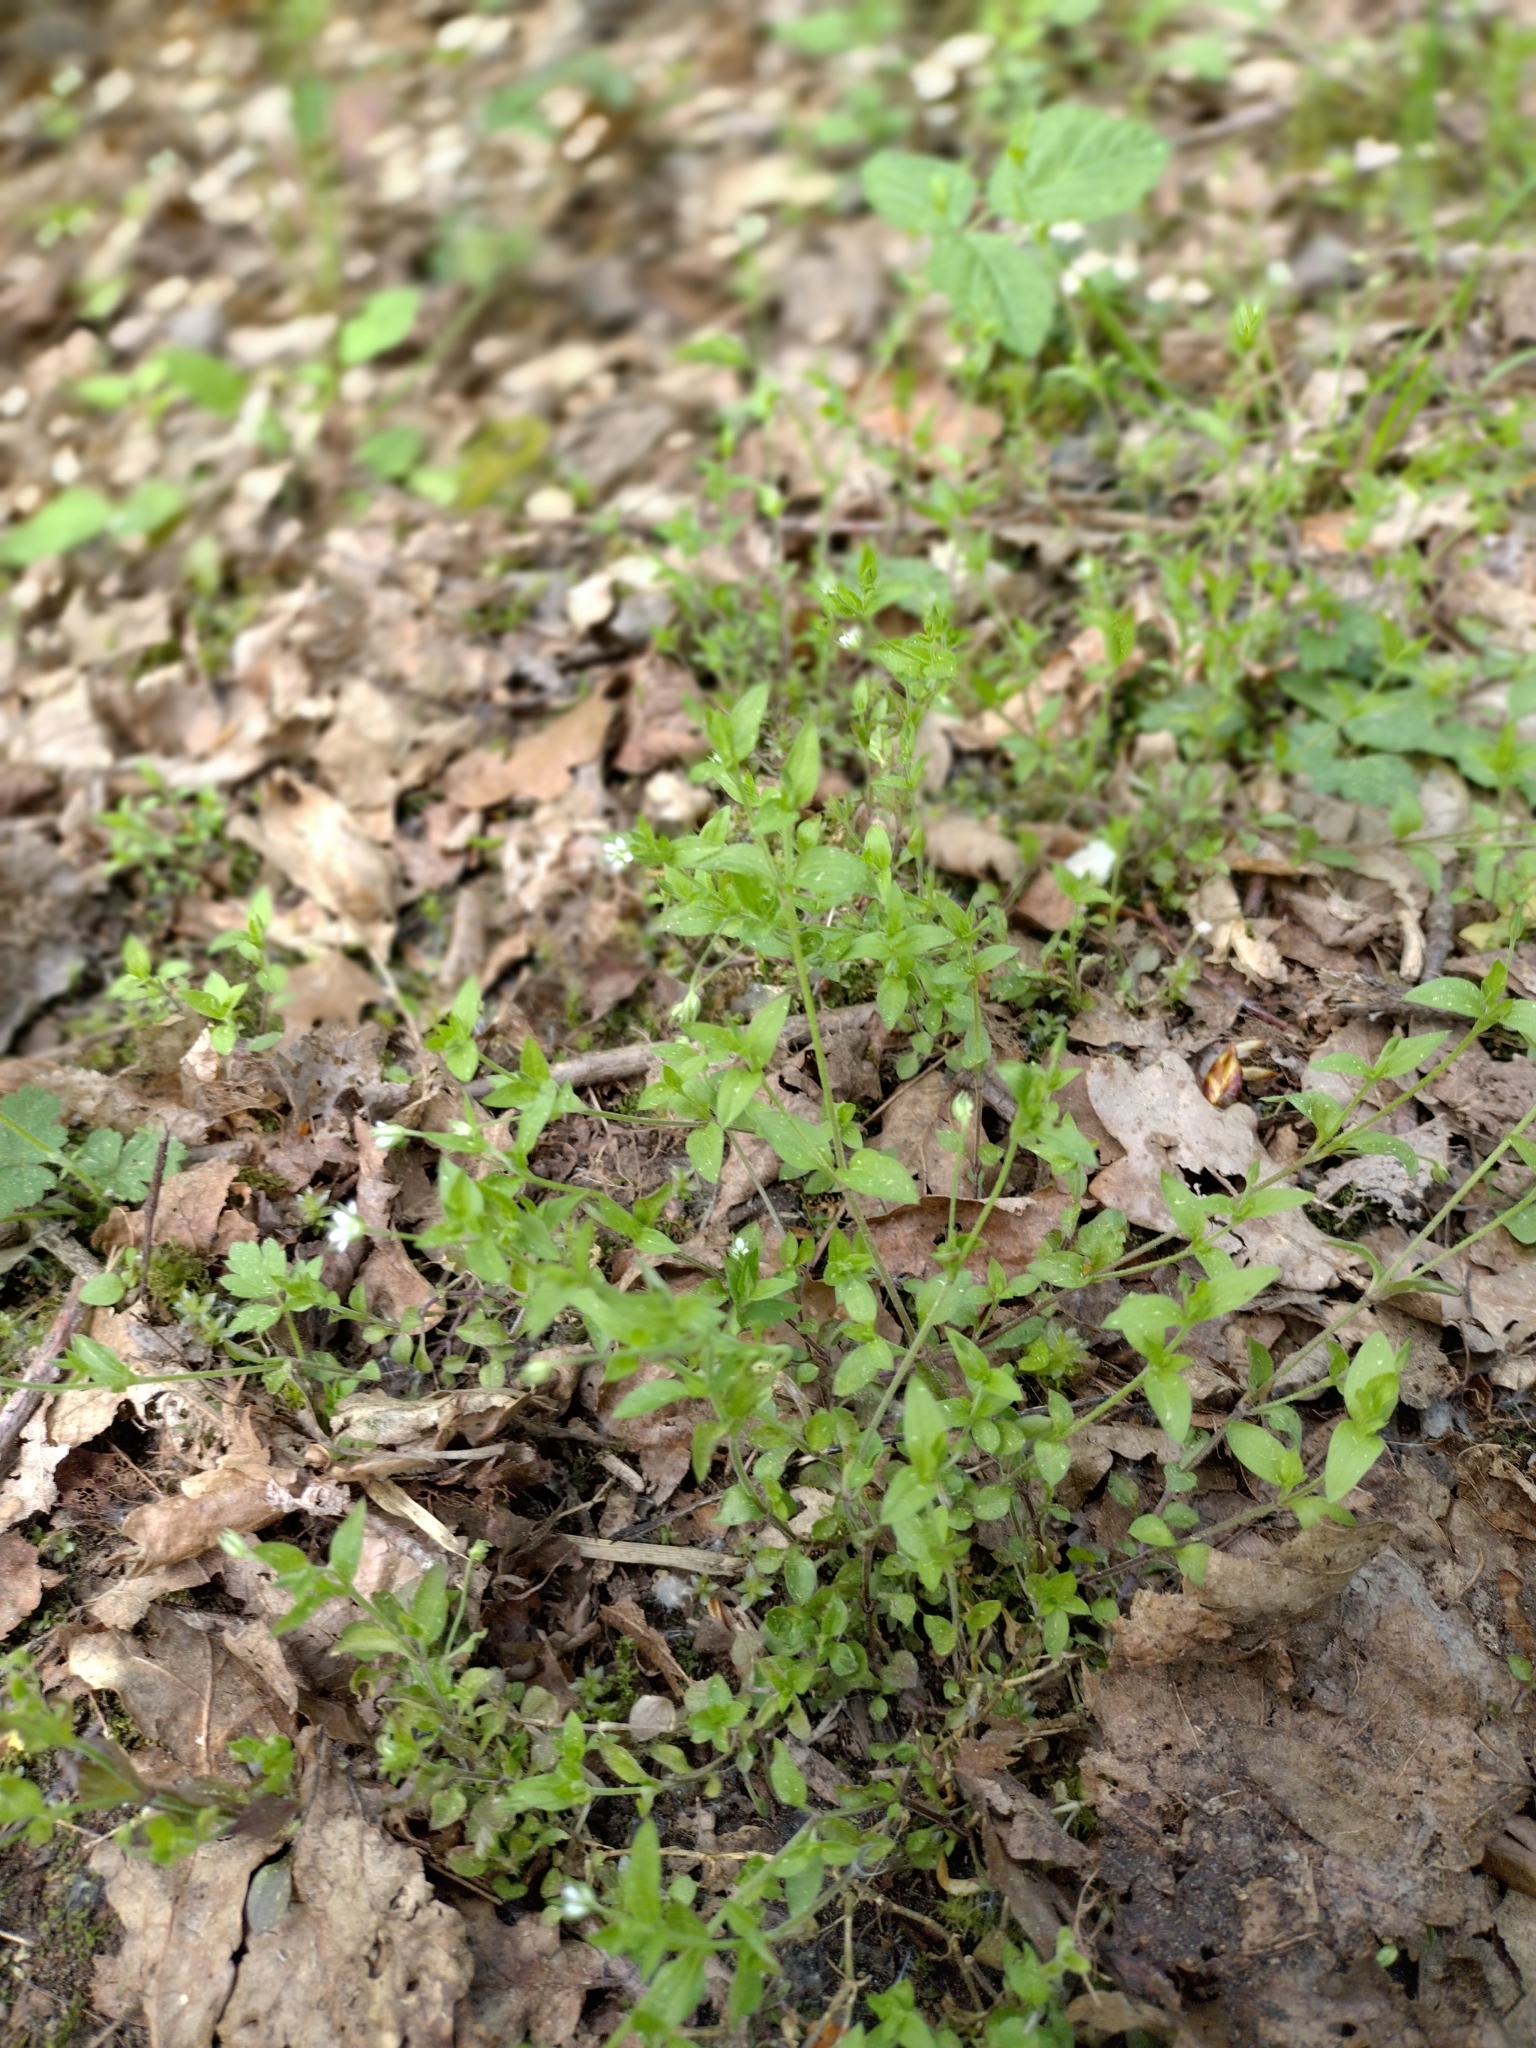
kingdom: Plantae
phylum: Tracheophyta
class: Magnoliopsida
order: Caryophyllales
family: Caryophyllaceae
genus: Moehringia
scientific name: Moehringia trinervia
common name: Three-nerved sandwort
